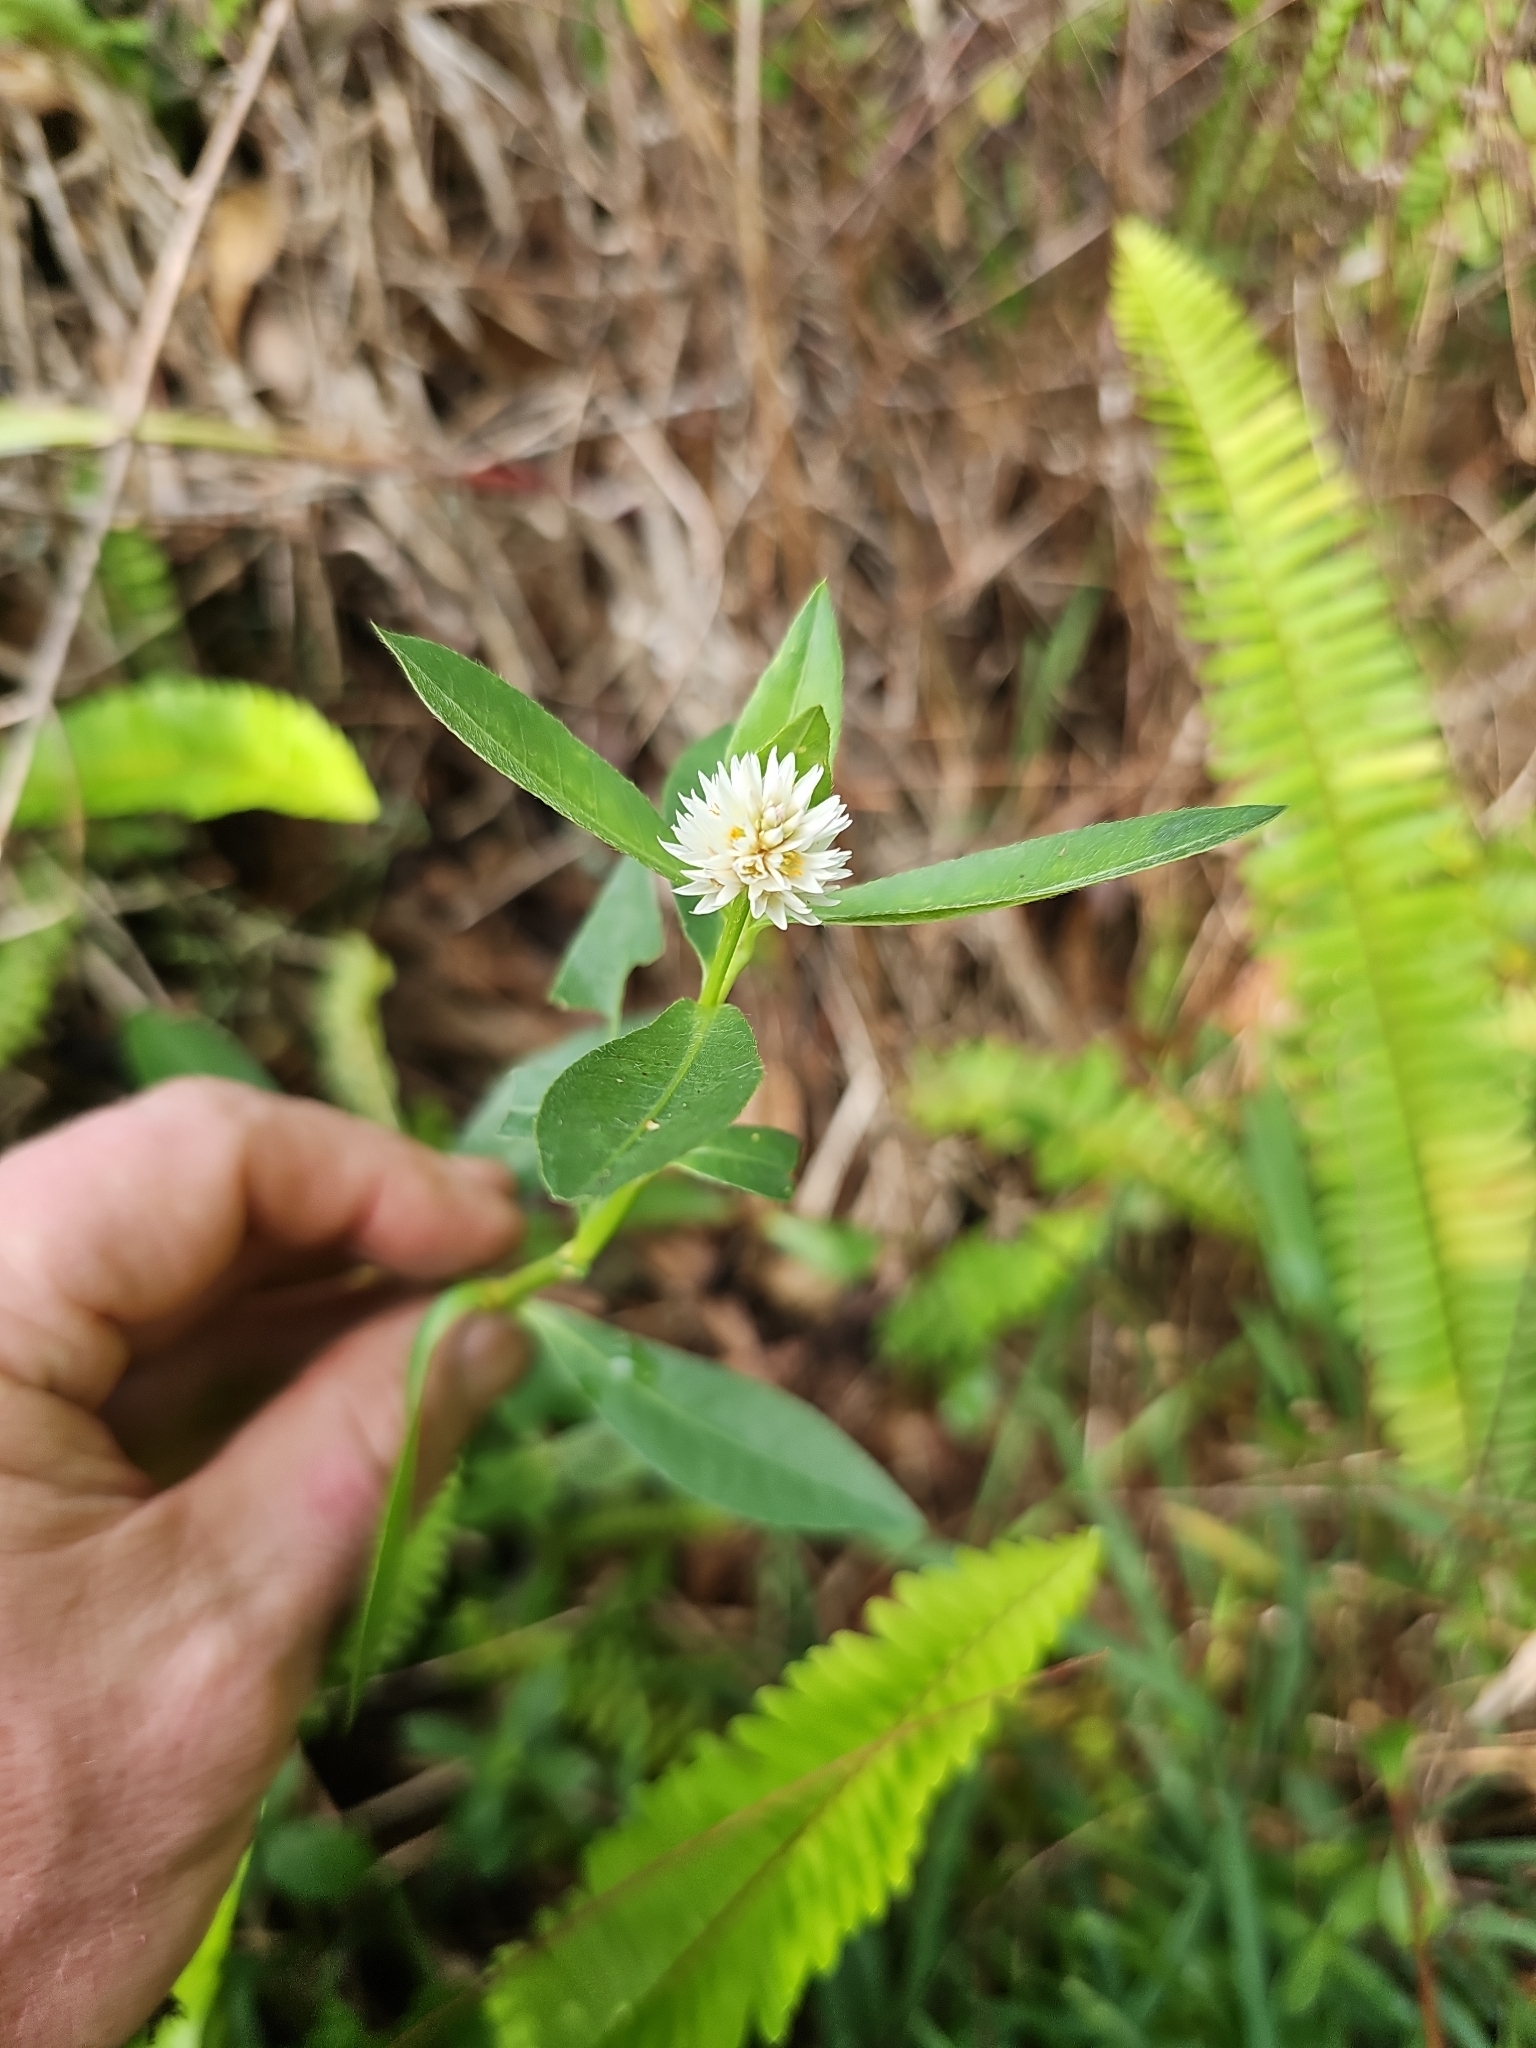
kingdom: Plantae
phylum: Tracheophyta
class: Magnoliopsida
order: Caryophyllales
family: Amaranthaceae
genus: Alternanthera
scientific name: Alternanthera philoxeroides
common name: Alligatorweed
